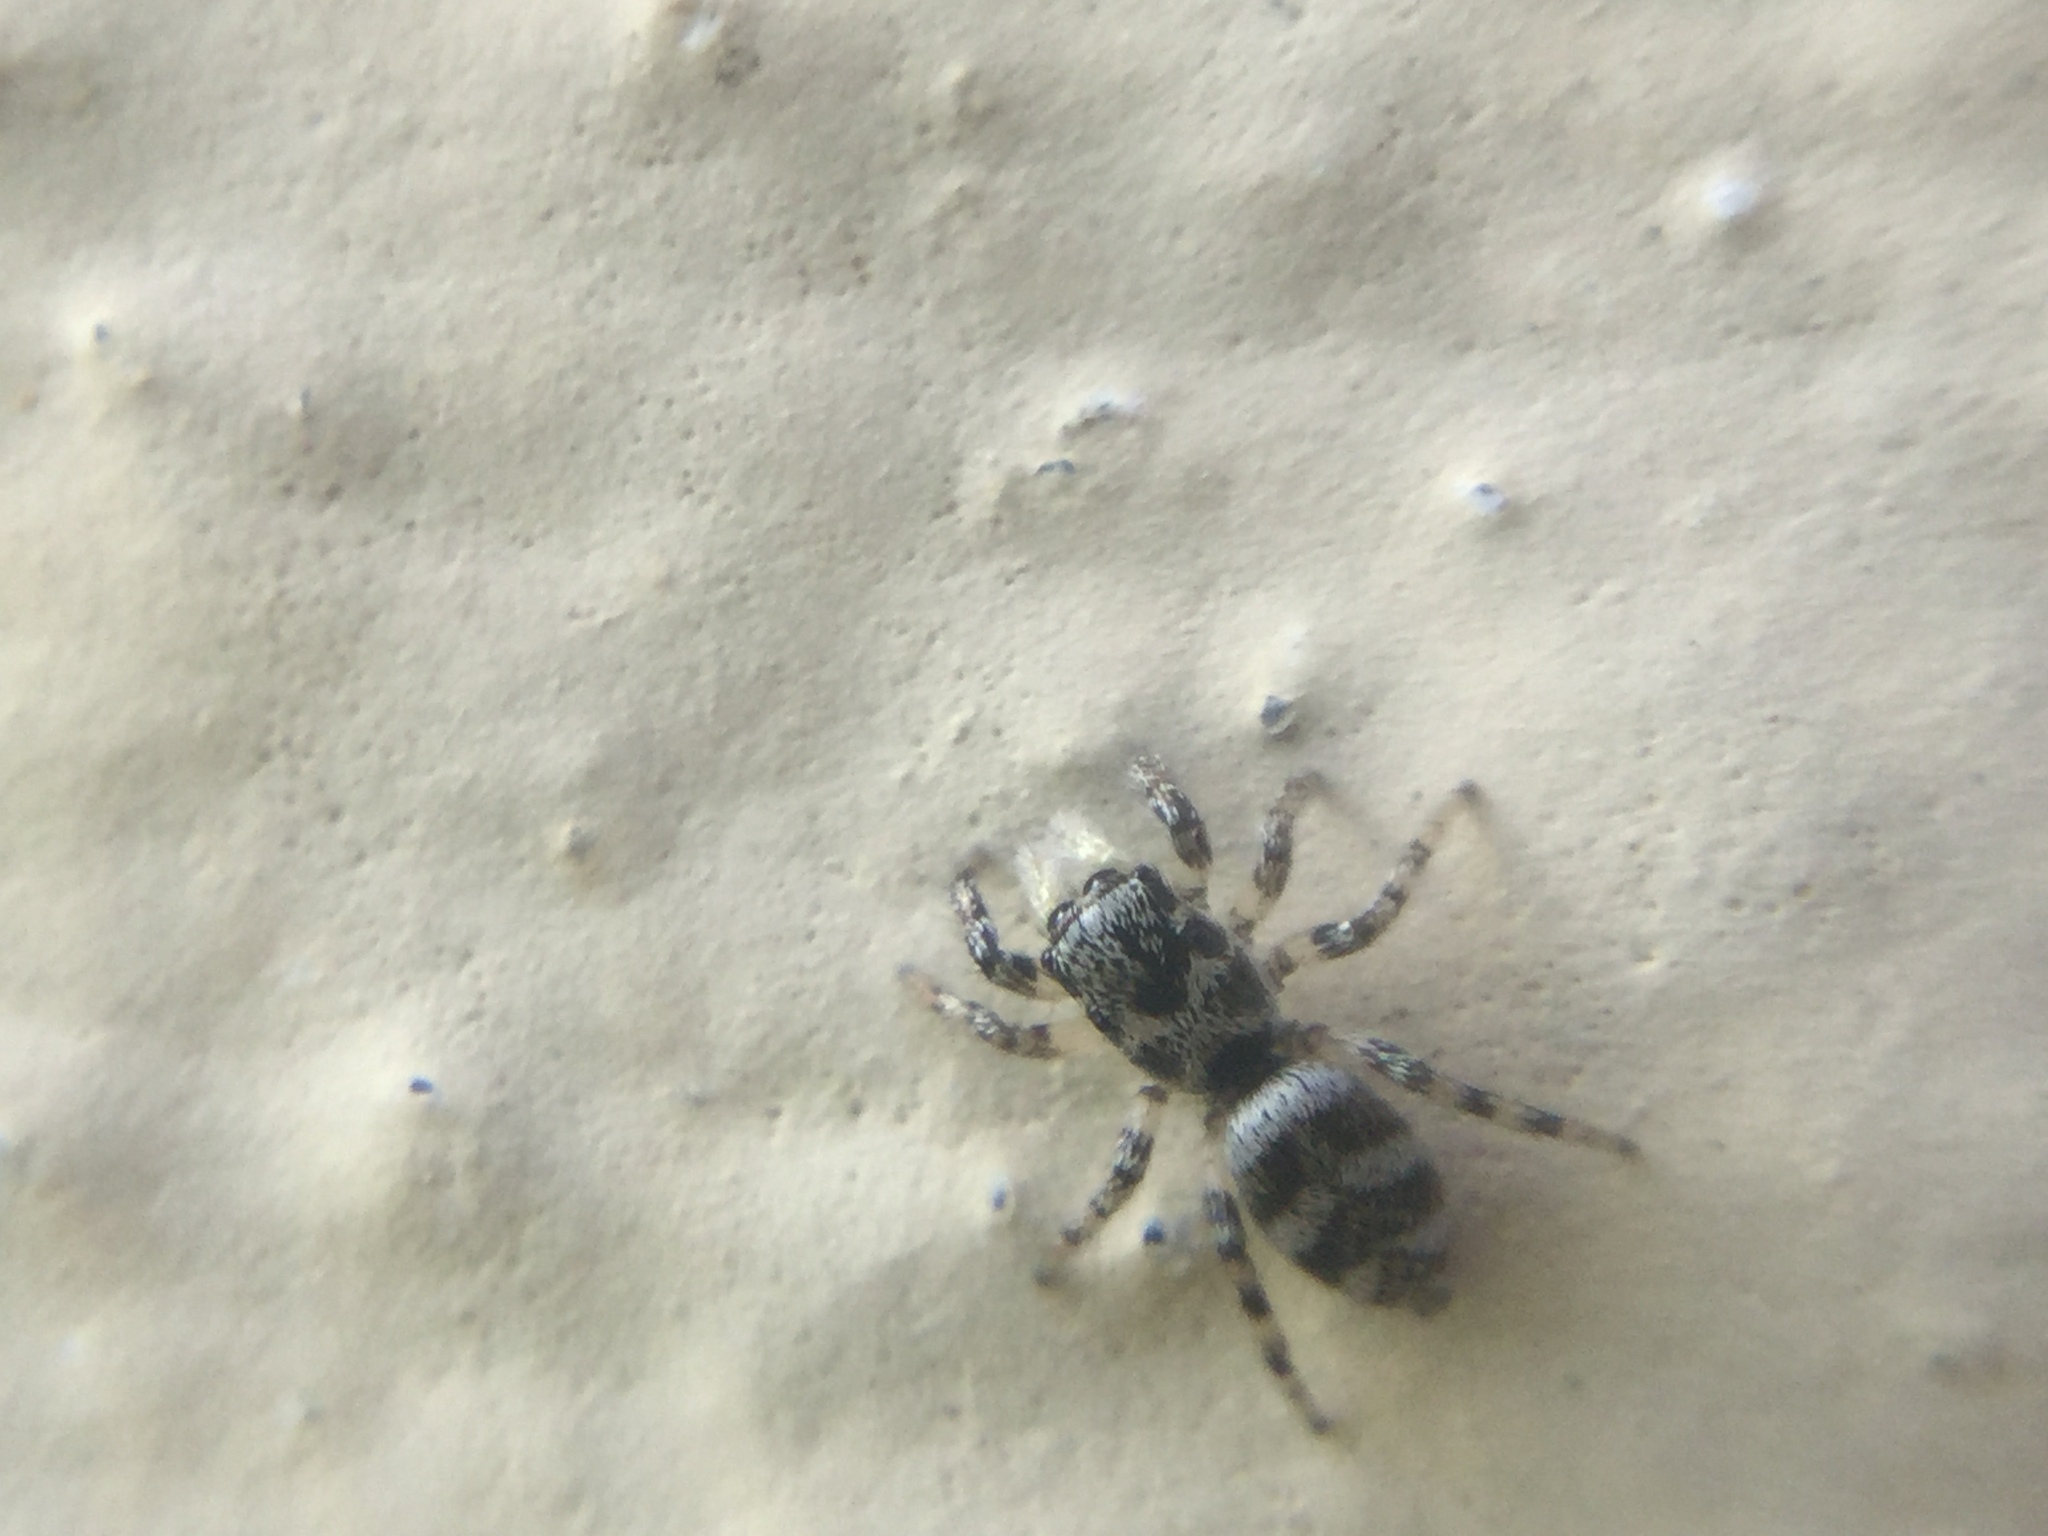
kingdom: Animalia
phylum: Arthropoda
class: Arachnida
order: Araneae
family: Salticidae
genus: Salticus
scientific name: Salticus scenicus
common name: Zebra jumper
